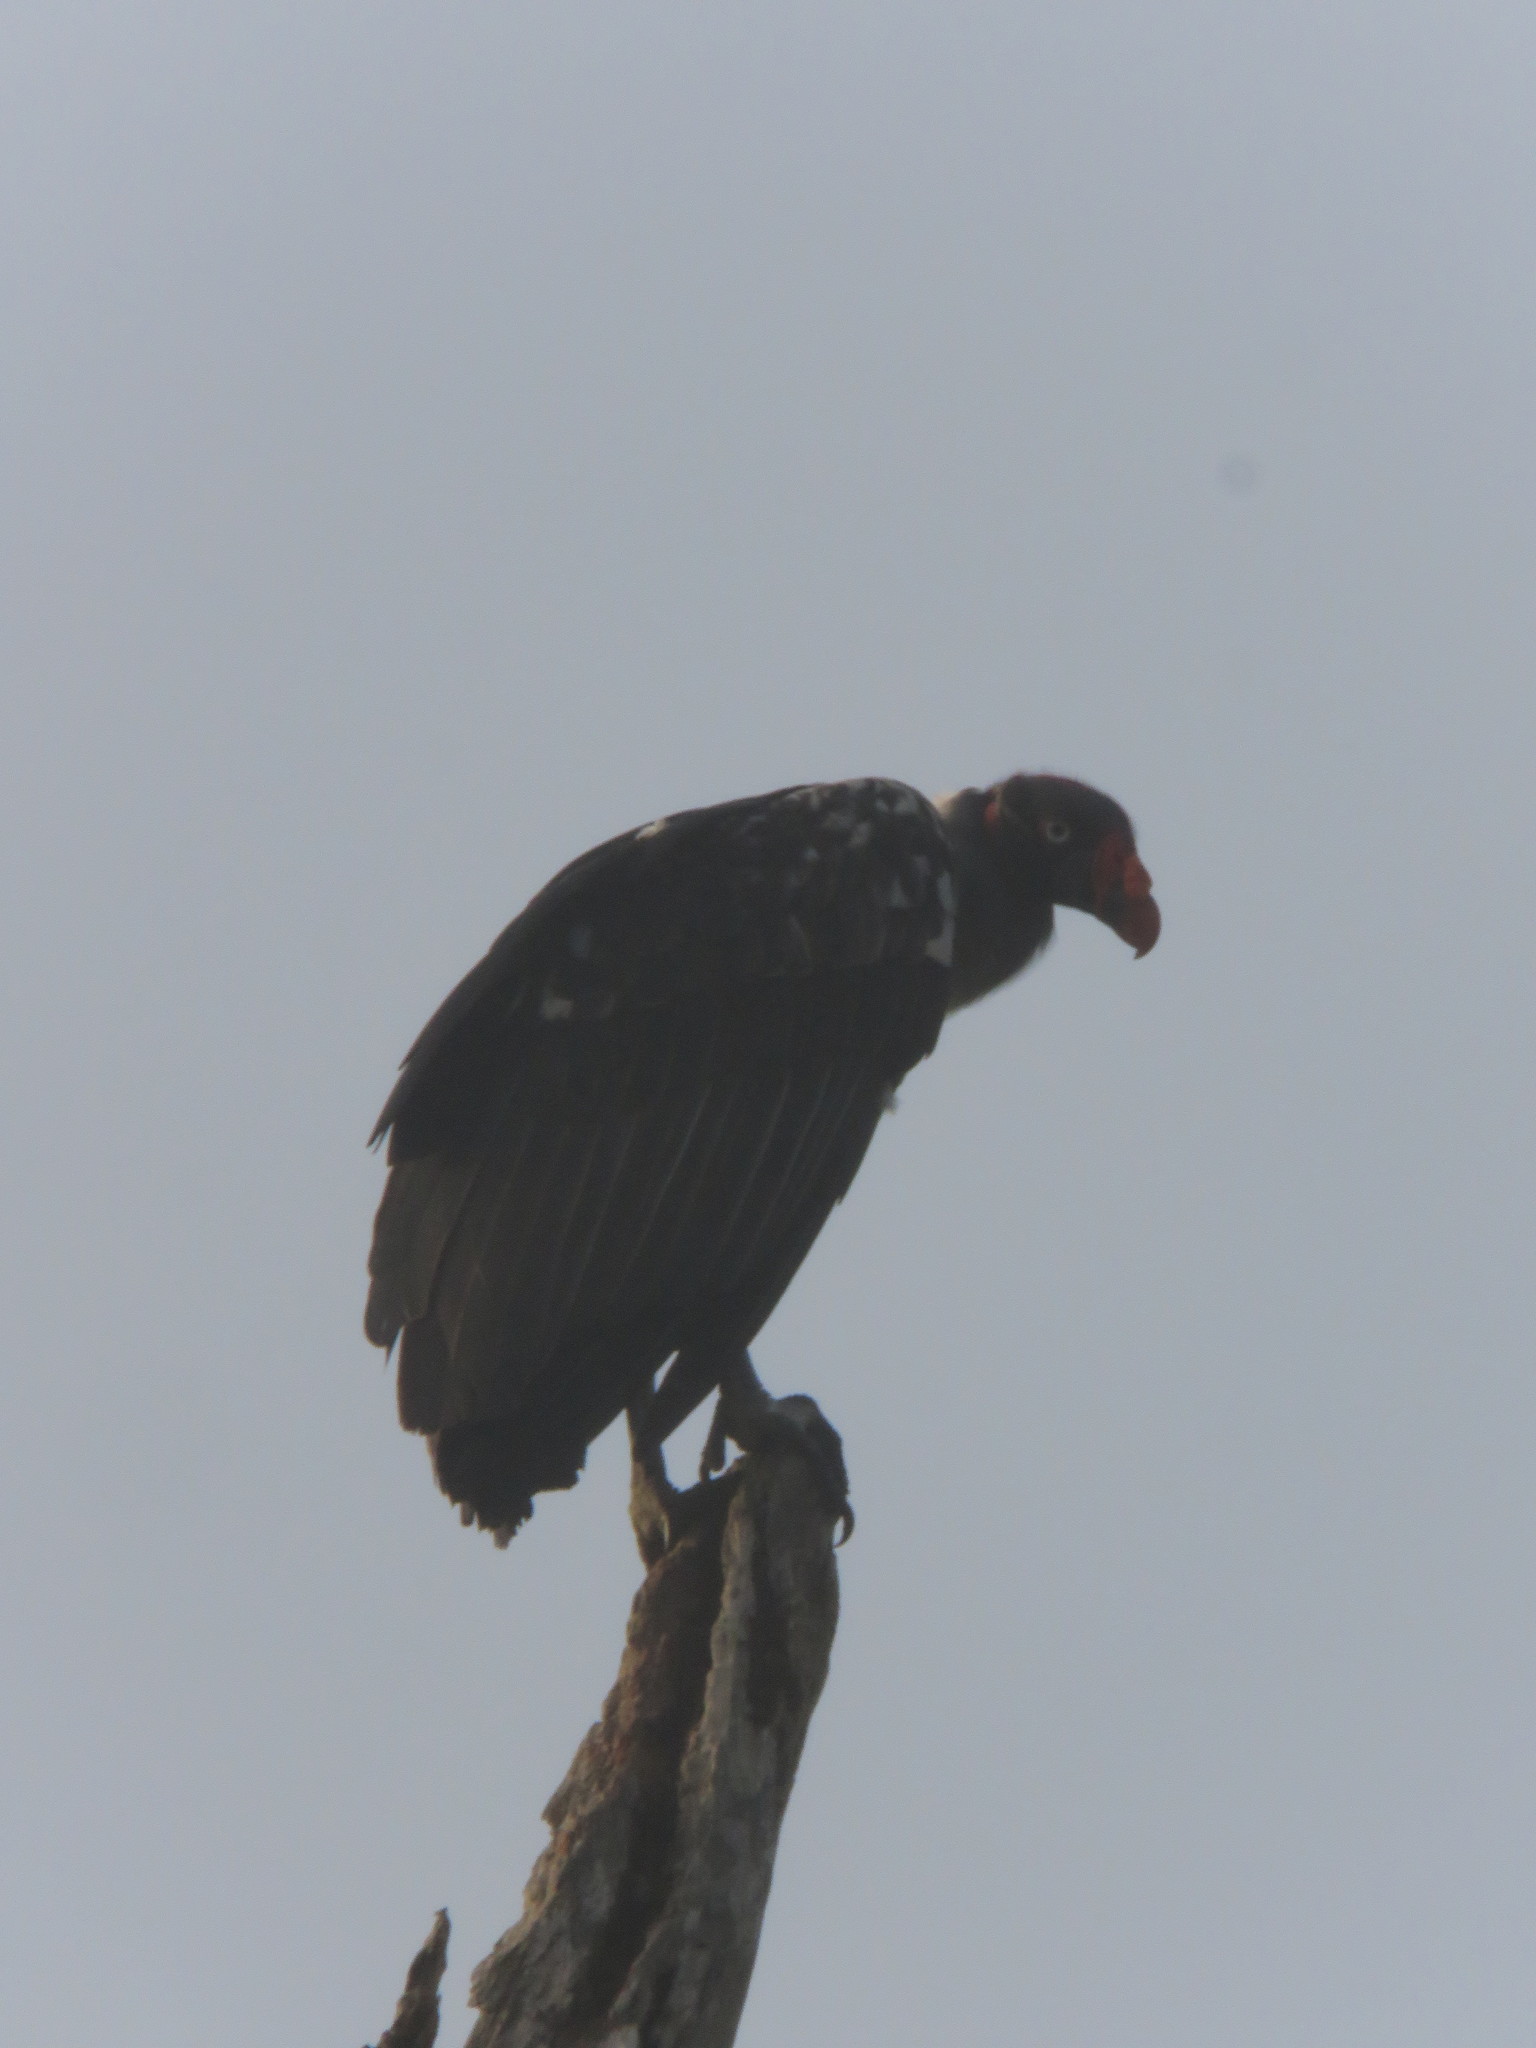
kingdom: Animalia
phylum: Chordata
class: Aves
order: Accipitriformes
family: Cathartidae
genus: Sarcoramphus
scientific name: Sarcoramphus papa
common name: King vulture
